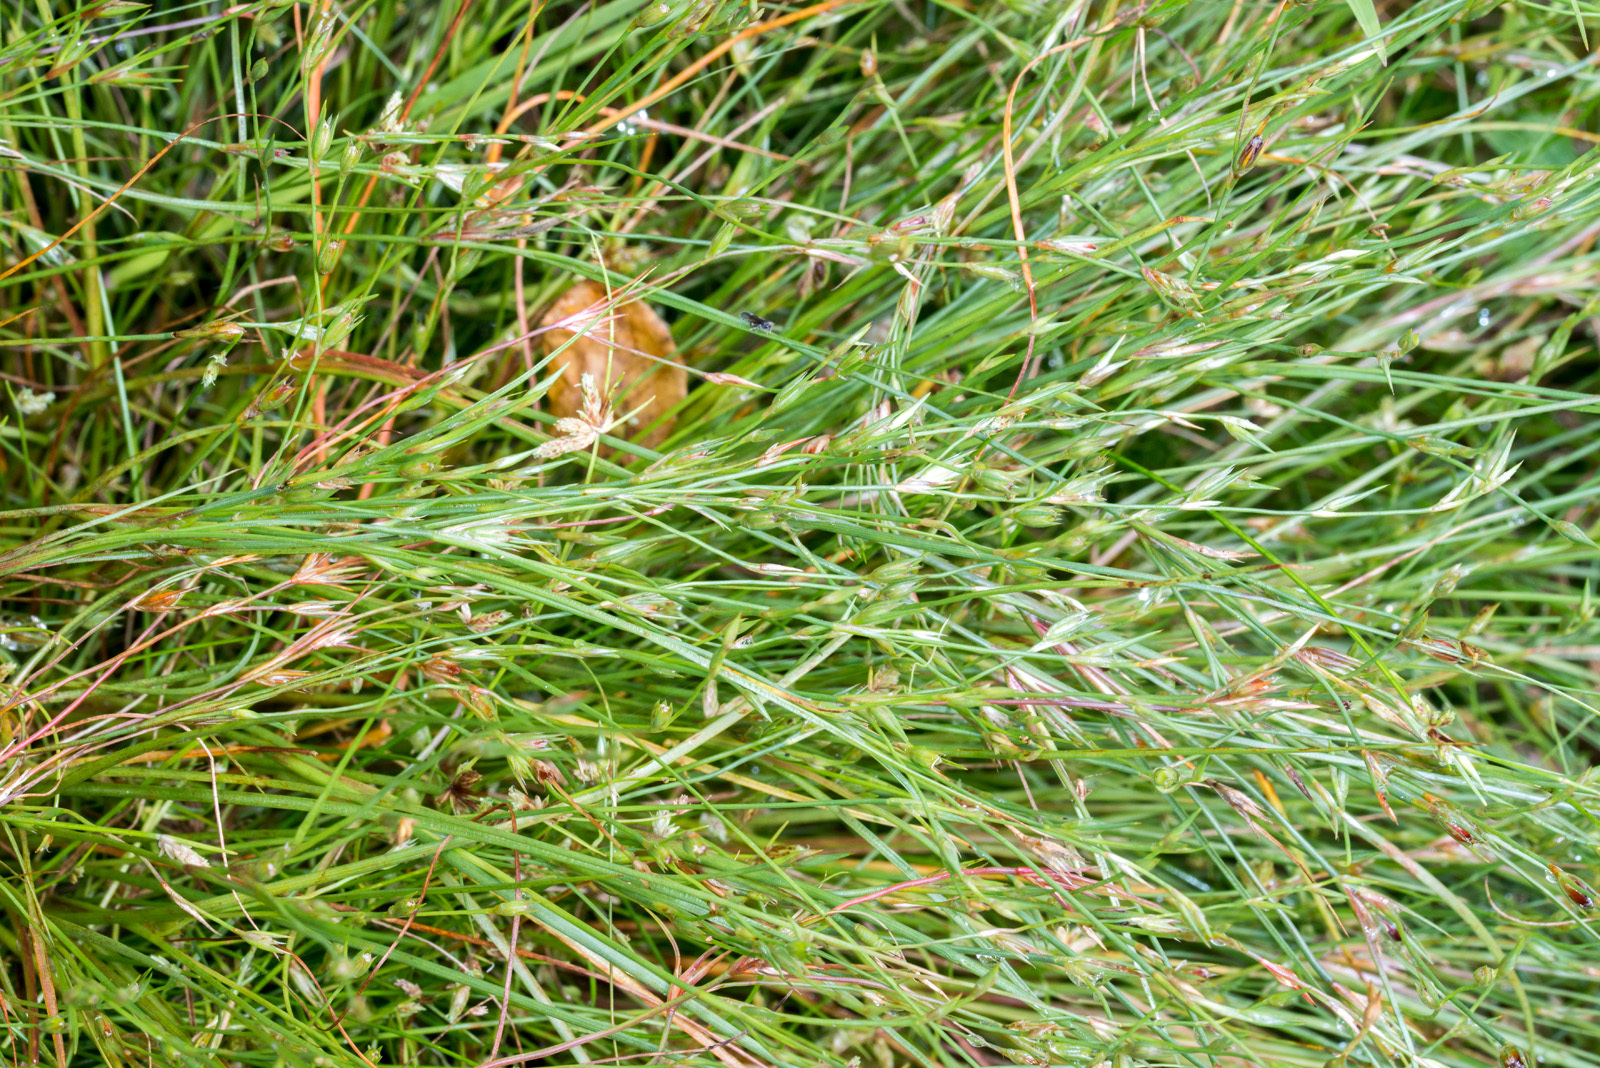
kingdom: Plantae
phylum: Tracheophyta
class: Liliopsida
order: Poales
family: Juncaceae
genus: Juncus
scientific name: Juncus bufonius
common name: Toad rush
